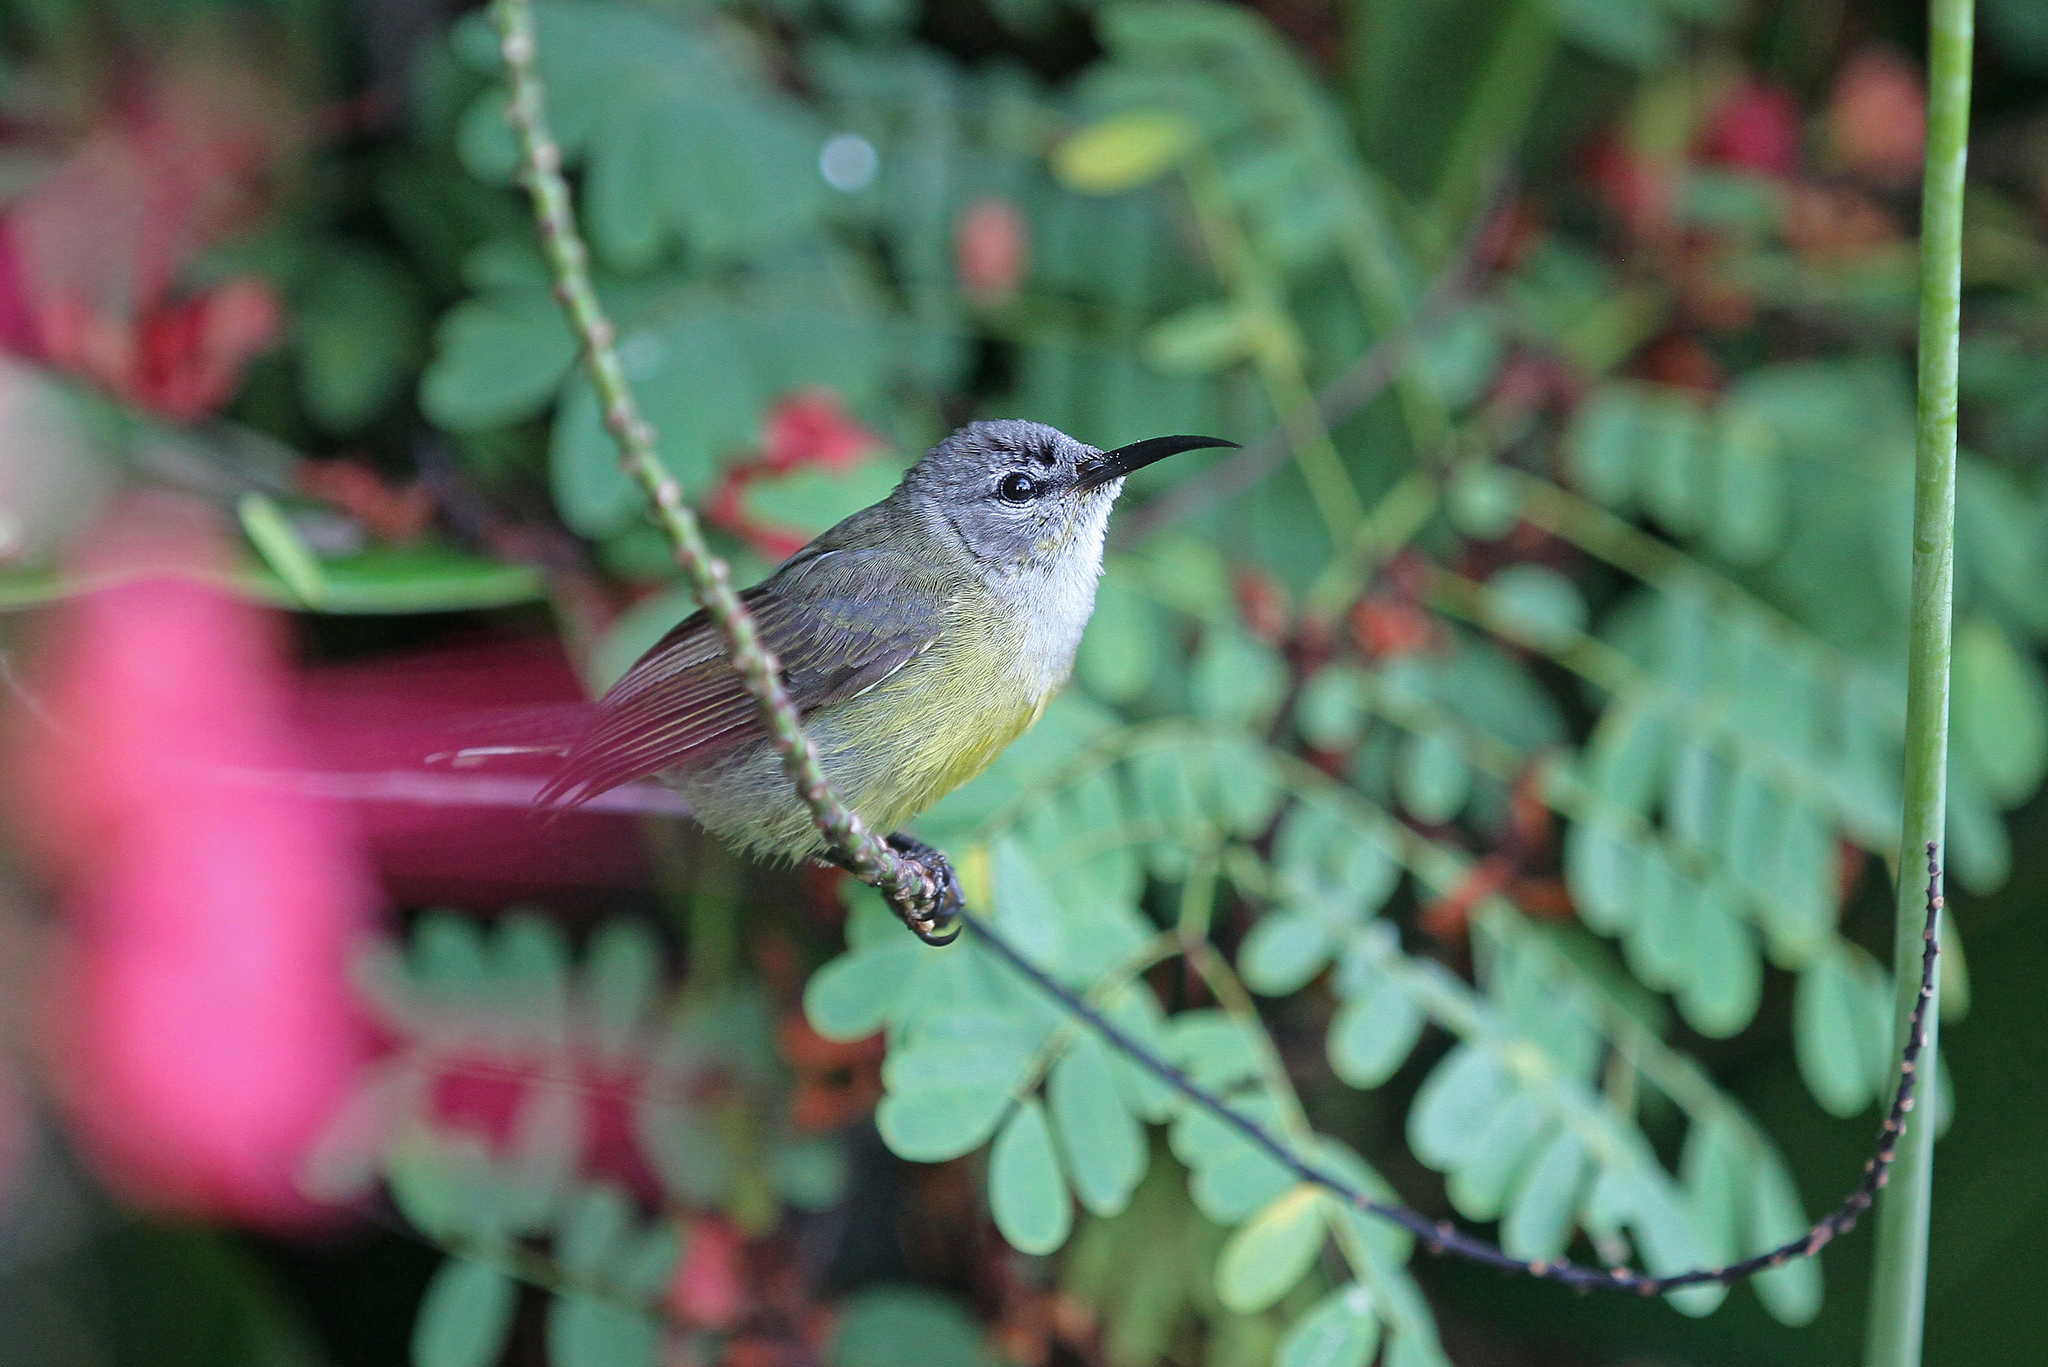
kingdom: Animalia
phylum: Chordata
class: Aves
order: Passeriformes
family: Nectariniidae
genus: Leptocoma
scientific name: Leptocoma calcostetha
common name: Copper-throated sunbird
